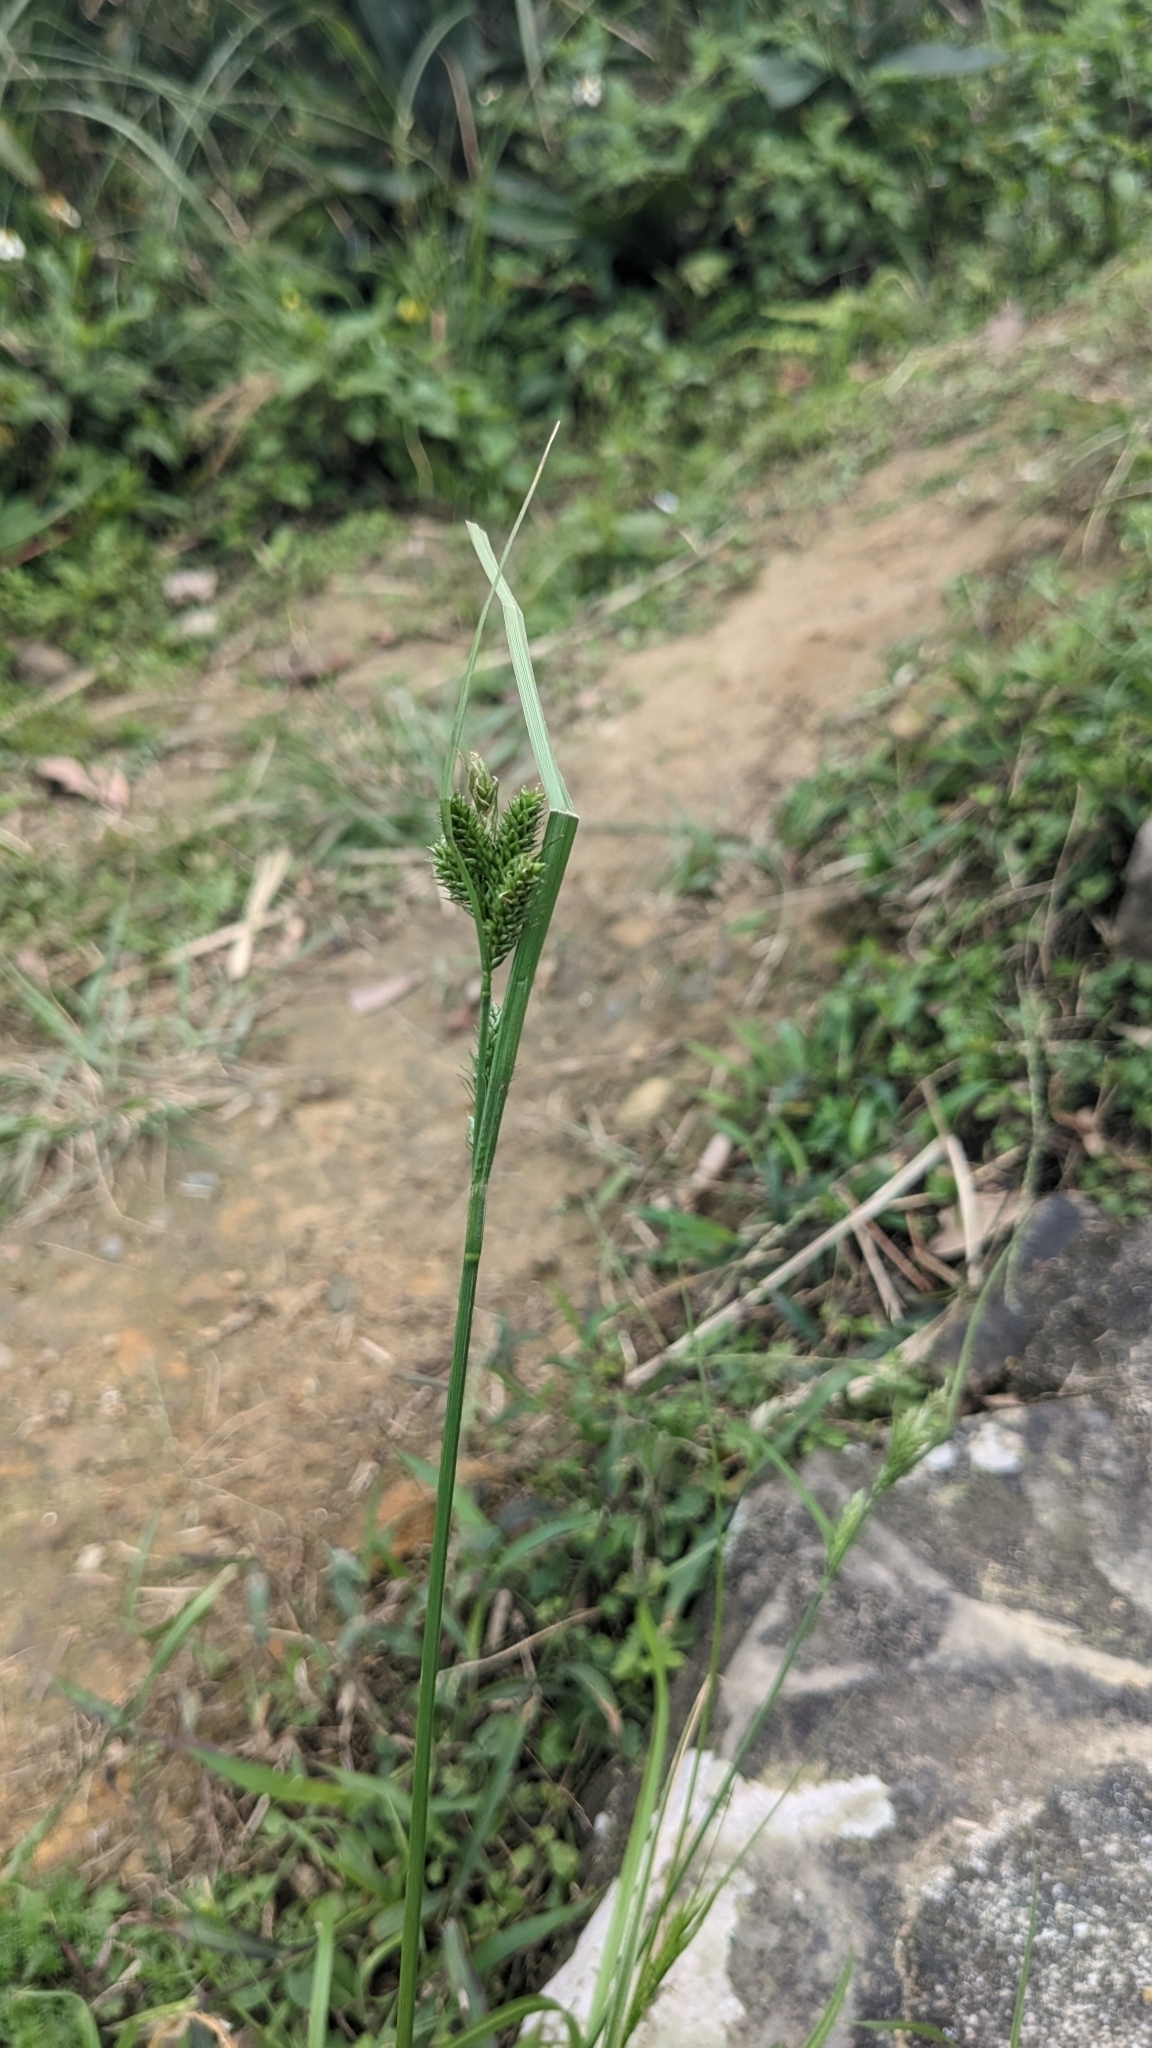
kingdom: Plantae
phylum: Tracheophyta
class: Liliopsida
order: Poales
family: Cyperaceae
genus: Carex
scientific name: Carex breviculmis
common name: Asian shortstem sedge
